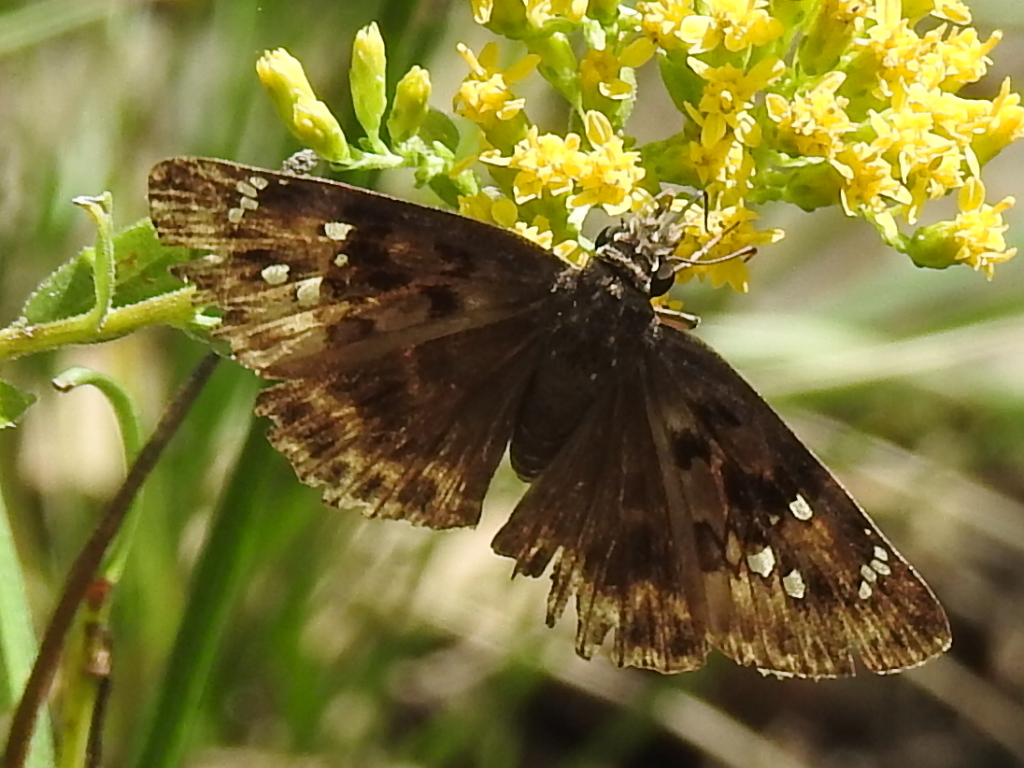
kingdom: Animalia
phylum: Arthropoda
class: Insecta
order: Lepidoptera
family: Hesperiidae
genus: Erynnis
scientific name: Erynnis horatius
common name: Horace's duskywing
